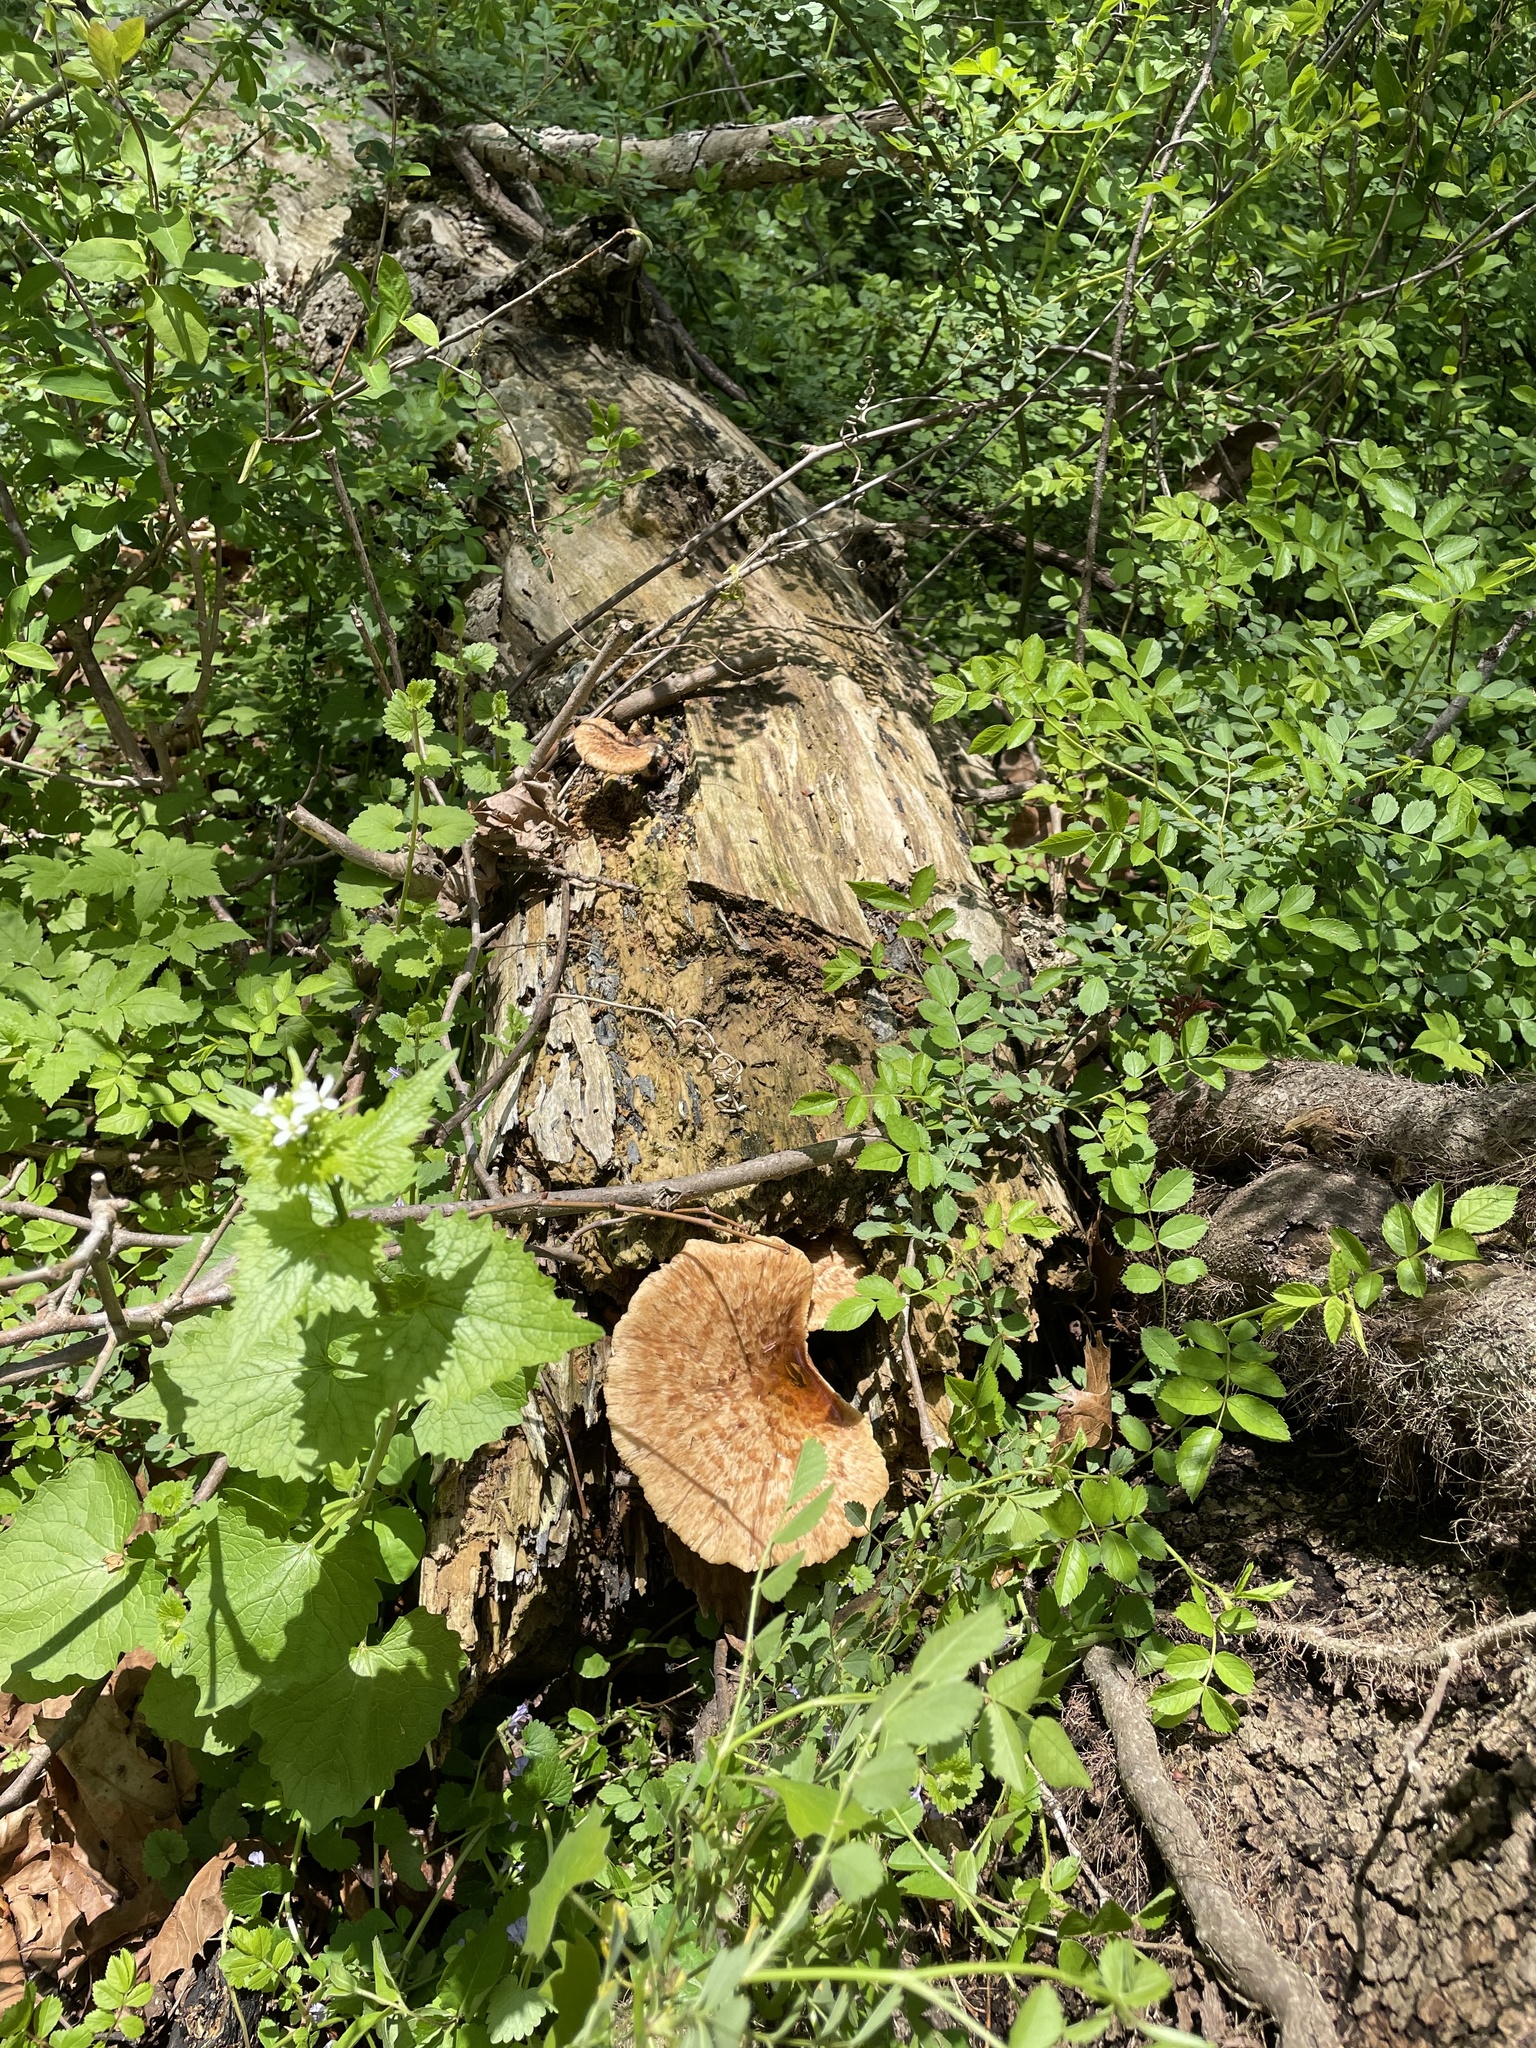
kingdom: Fungi
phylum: Basidiomycota
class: Agaricomycetes
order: Polyporales
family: Polyporaceae
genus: Cerioporus
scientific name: Cerioporus squamosus
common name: Dryad's saddle
